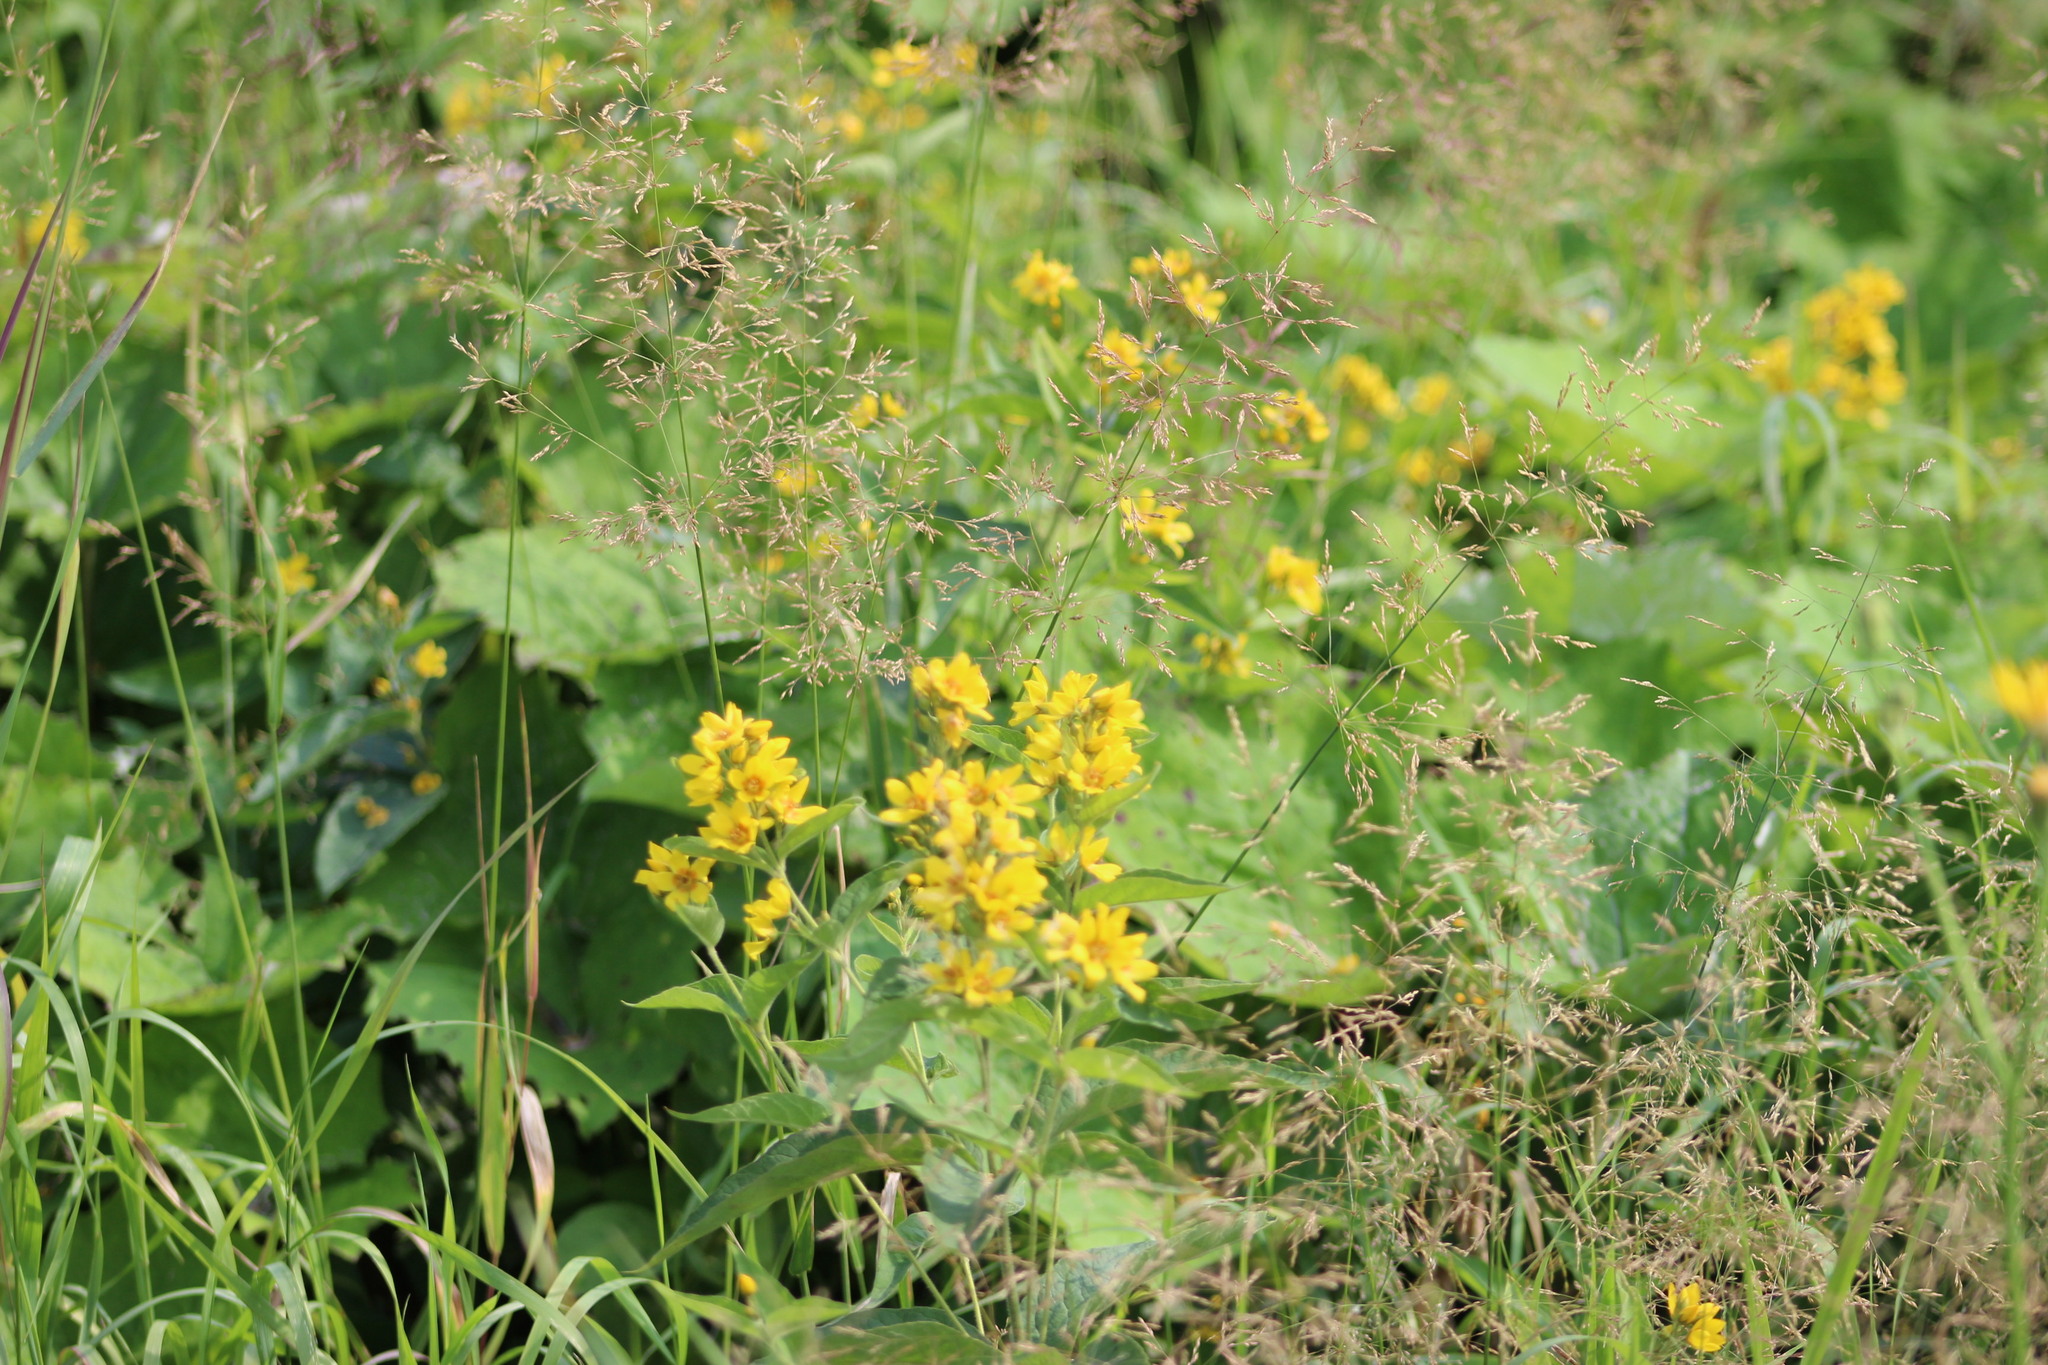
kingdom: Plantae
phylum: Tracheophyta
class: Magnoliopsida
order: Ericales
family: Primulaceae
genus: Lysimachia
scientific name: Lysimachia vulgaris
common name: Yellow loosestrife
